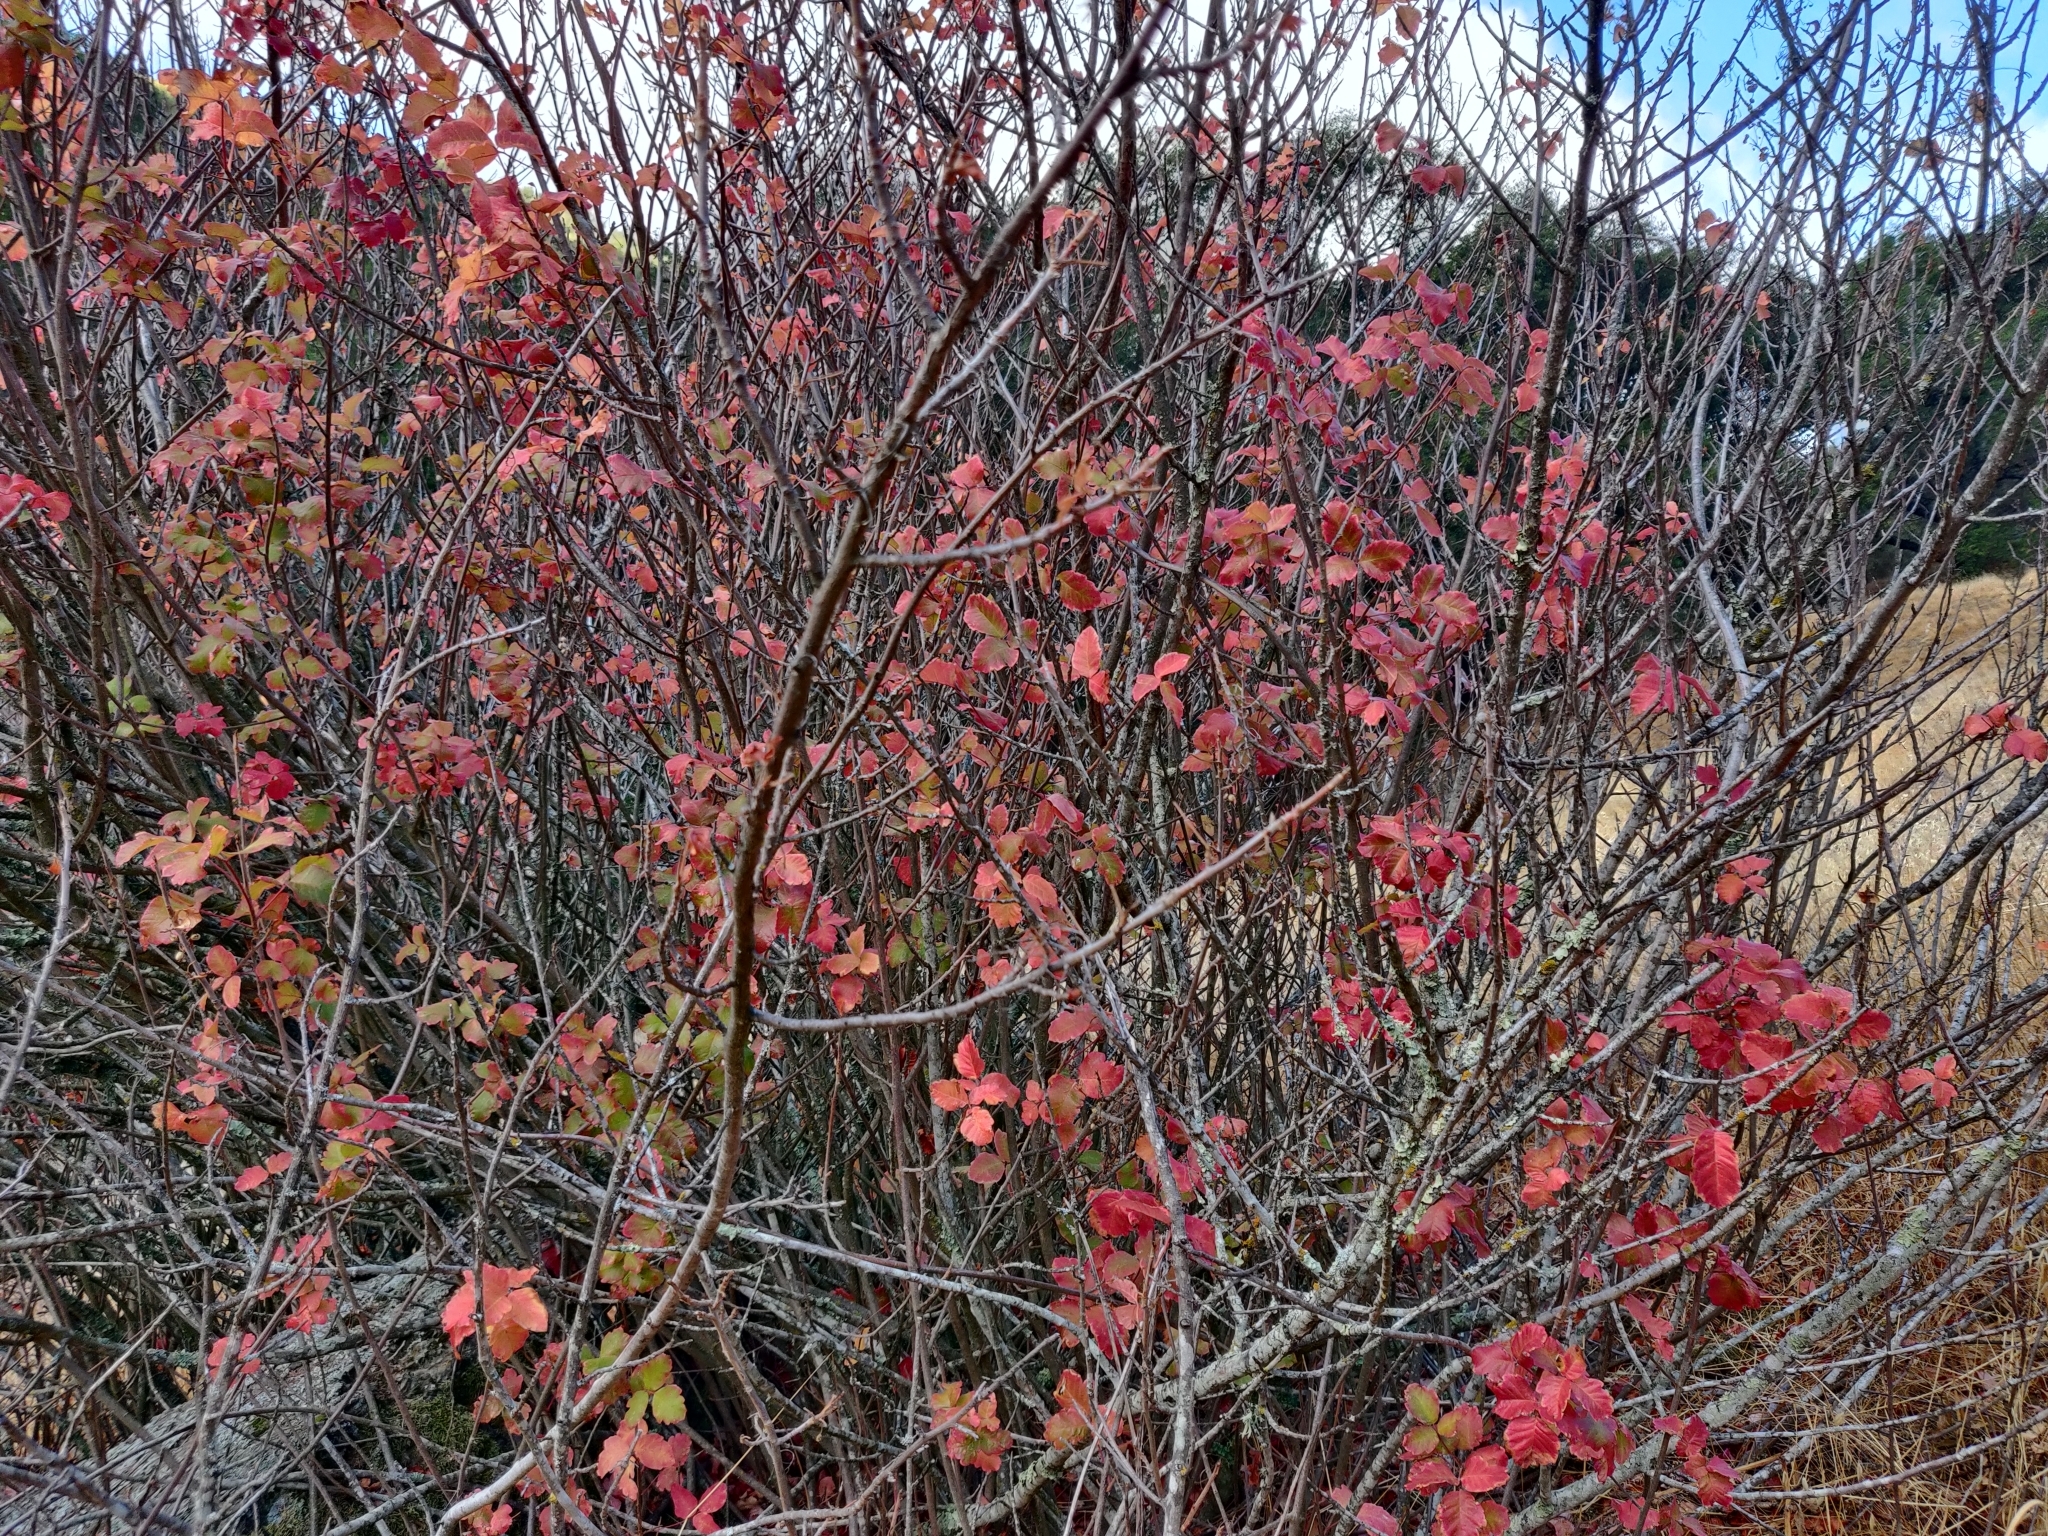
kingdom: Plantae
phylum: Tracheophyta
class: Magnoliopsida
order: Sapindales
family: Anacardiaceae
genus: Toxicodendron
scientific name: Toxicodendron diversilobum
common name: Pacific poison-oak
